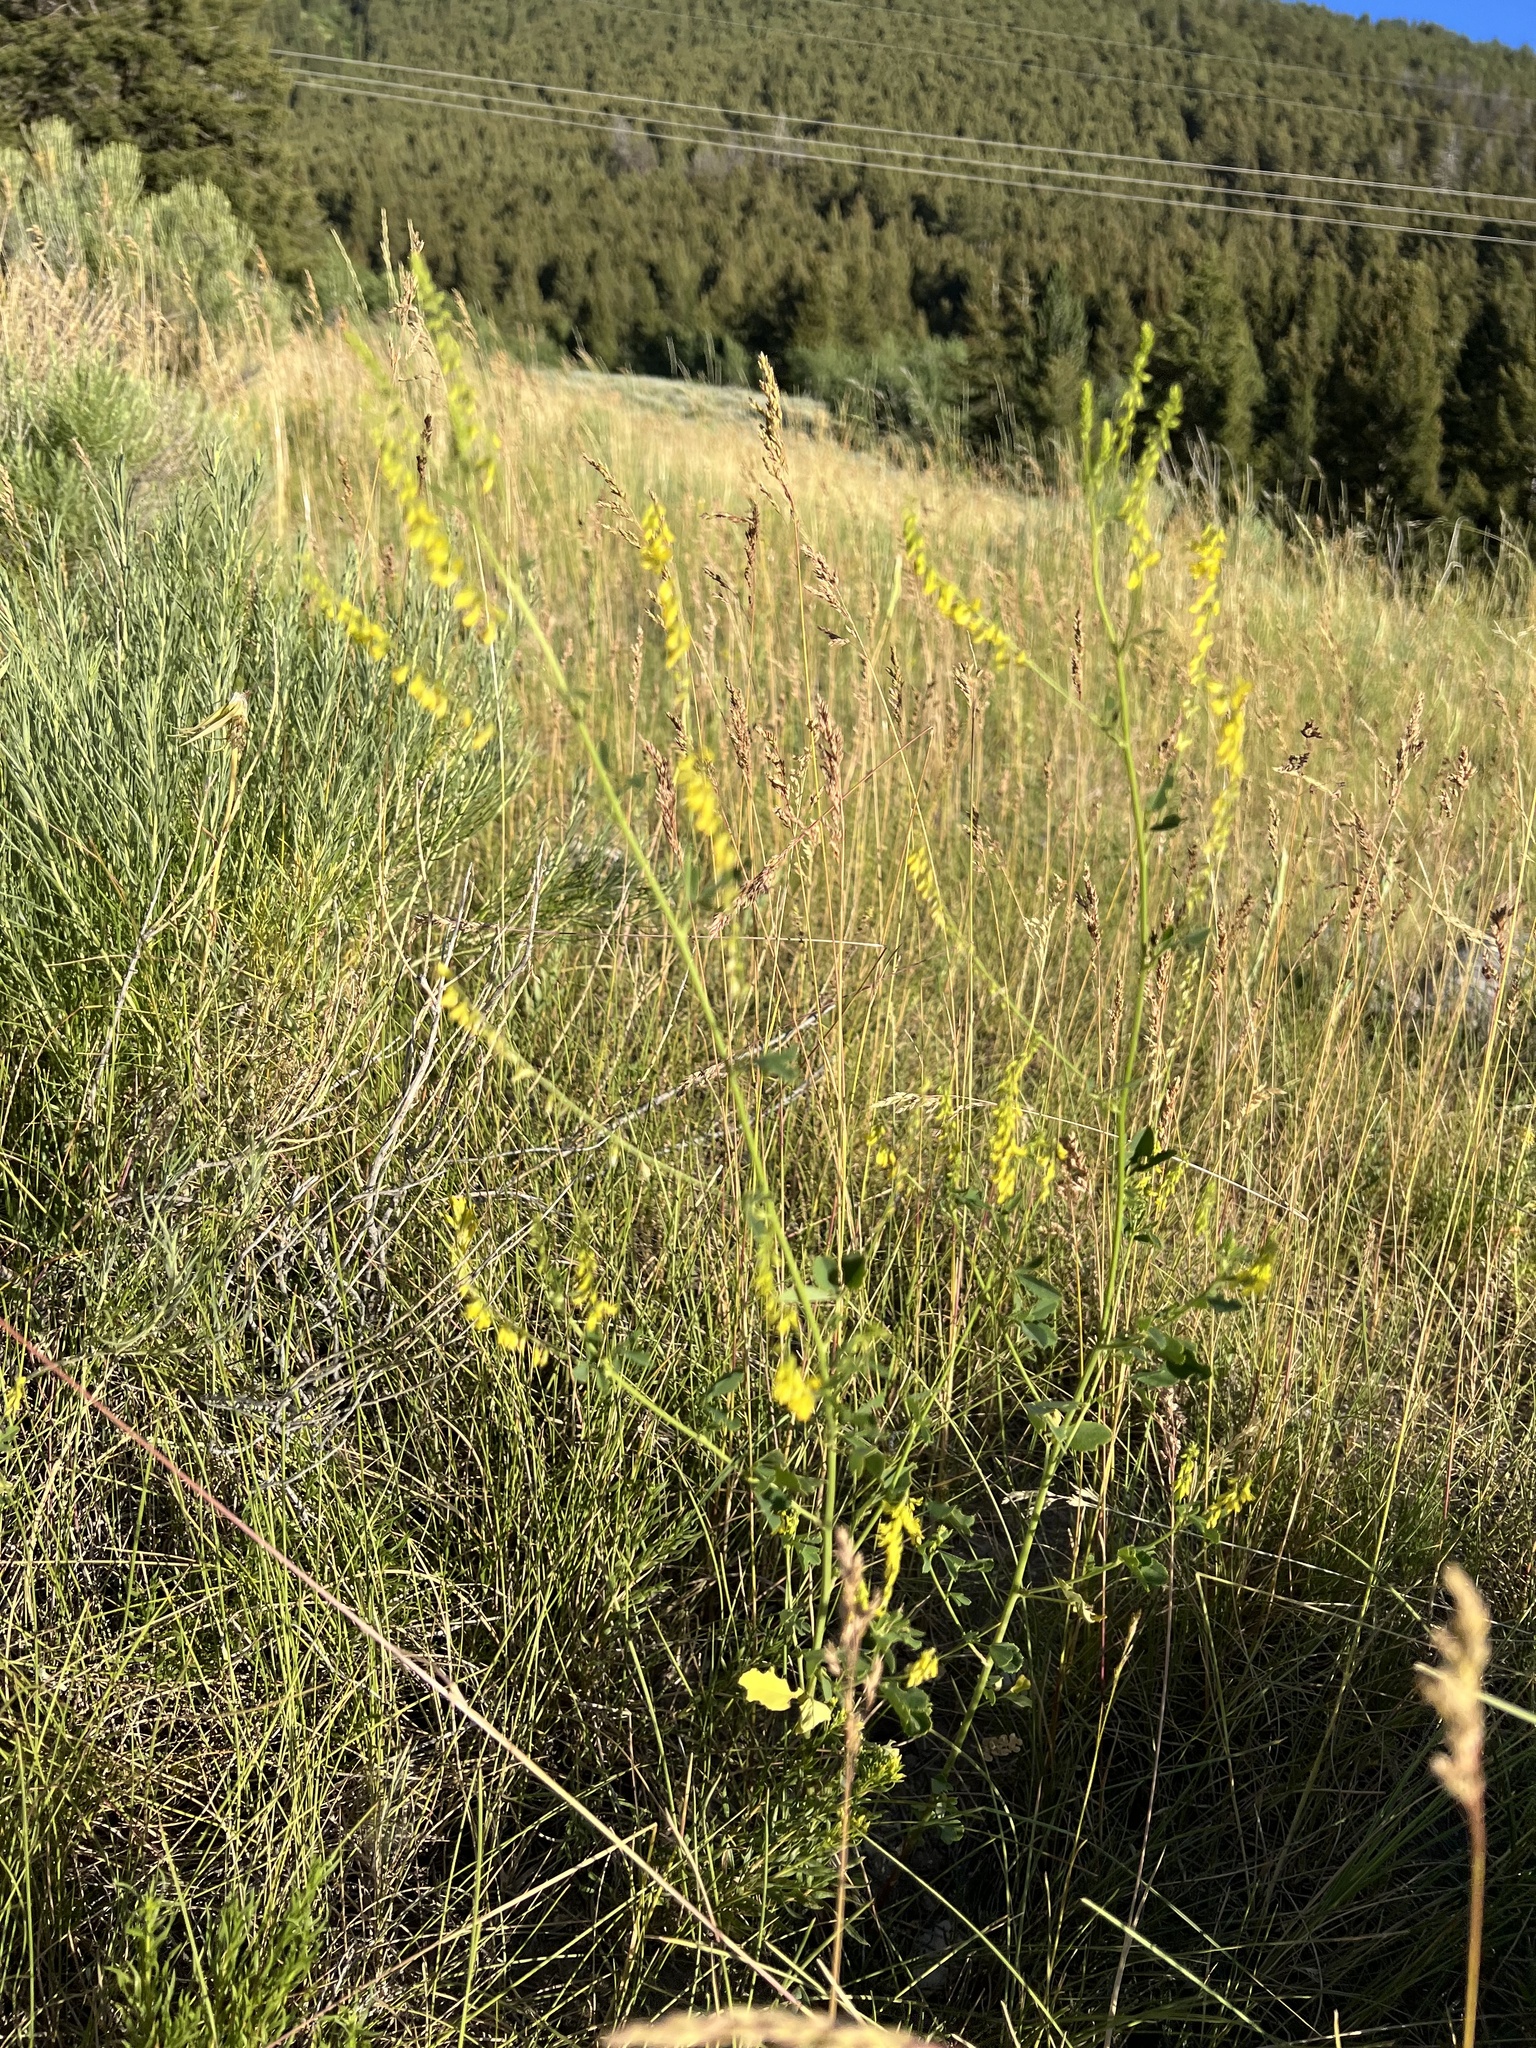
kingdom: Plantae
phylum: Tracheophyta
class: Magnoliopsida
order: Fabales
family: Fabaceae
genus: Melilotus
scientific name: Melilotus officinalis
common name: Sweetclover
